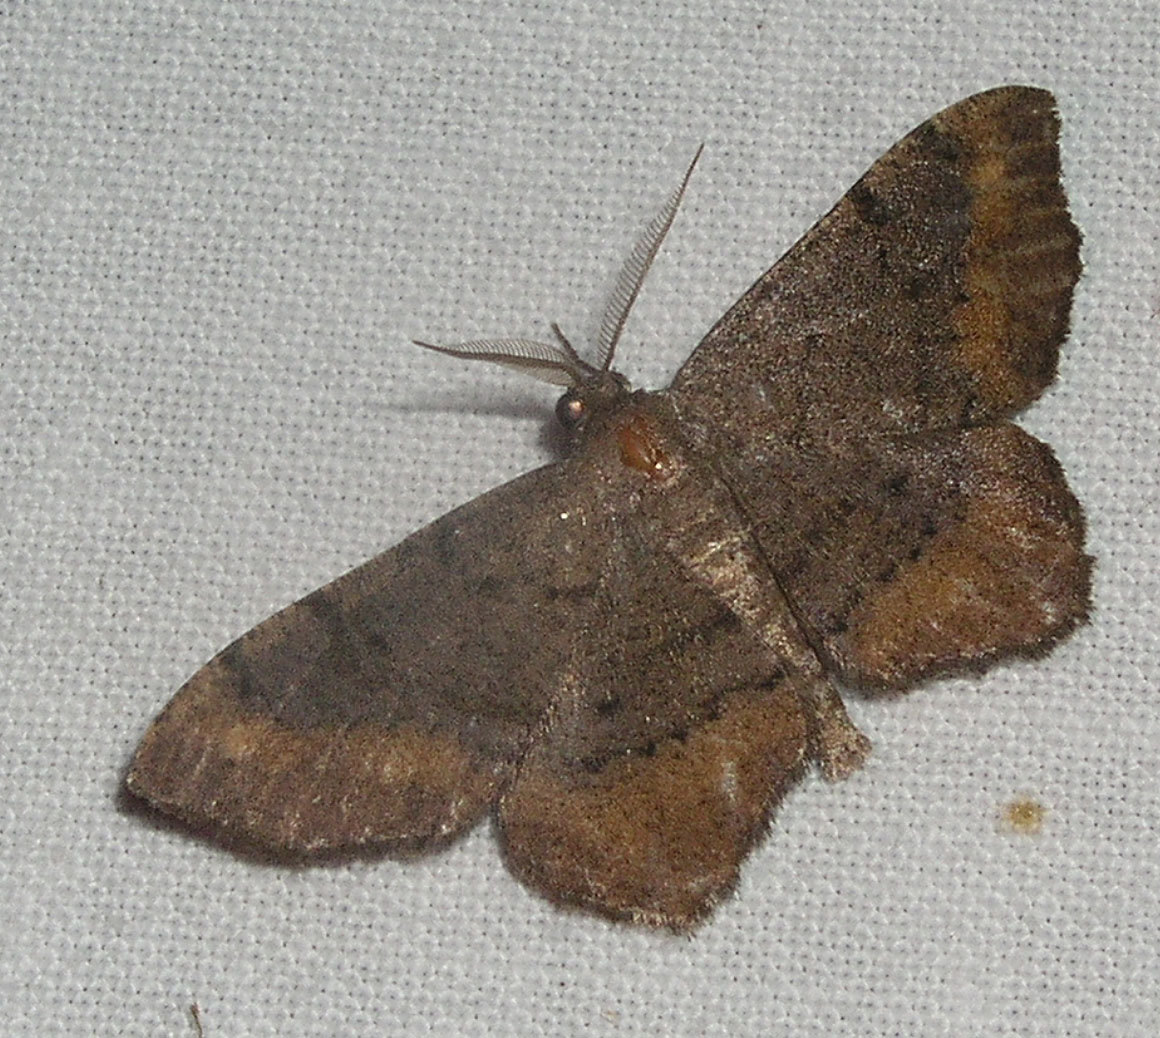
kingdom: Animalia
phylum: Arthropoda
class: Insecta
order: Lepidoptera
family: Geometridae
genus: Hypagyrtis
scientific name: Hypagyrtis esther
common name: Esther moth
